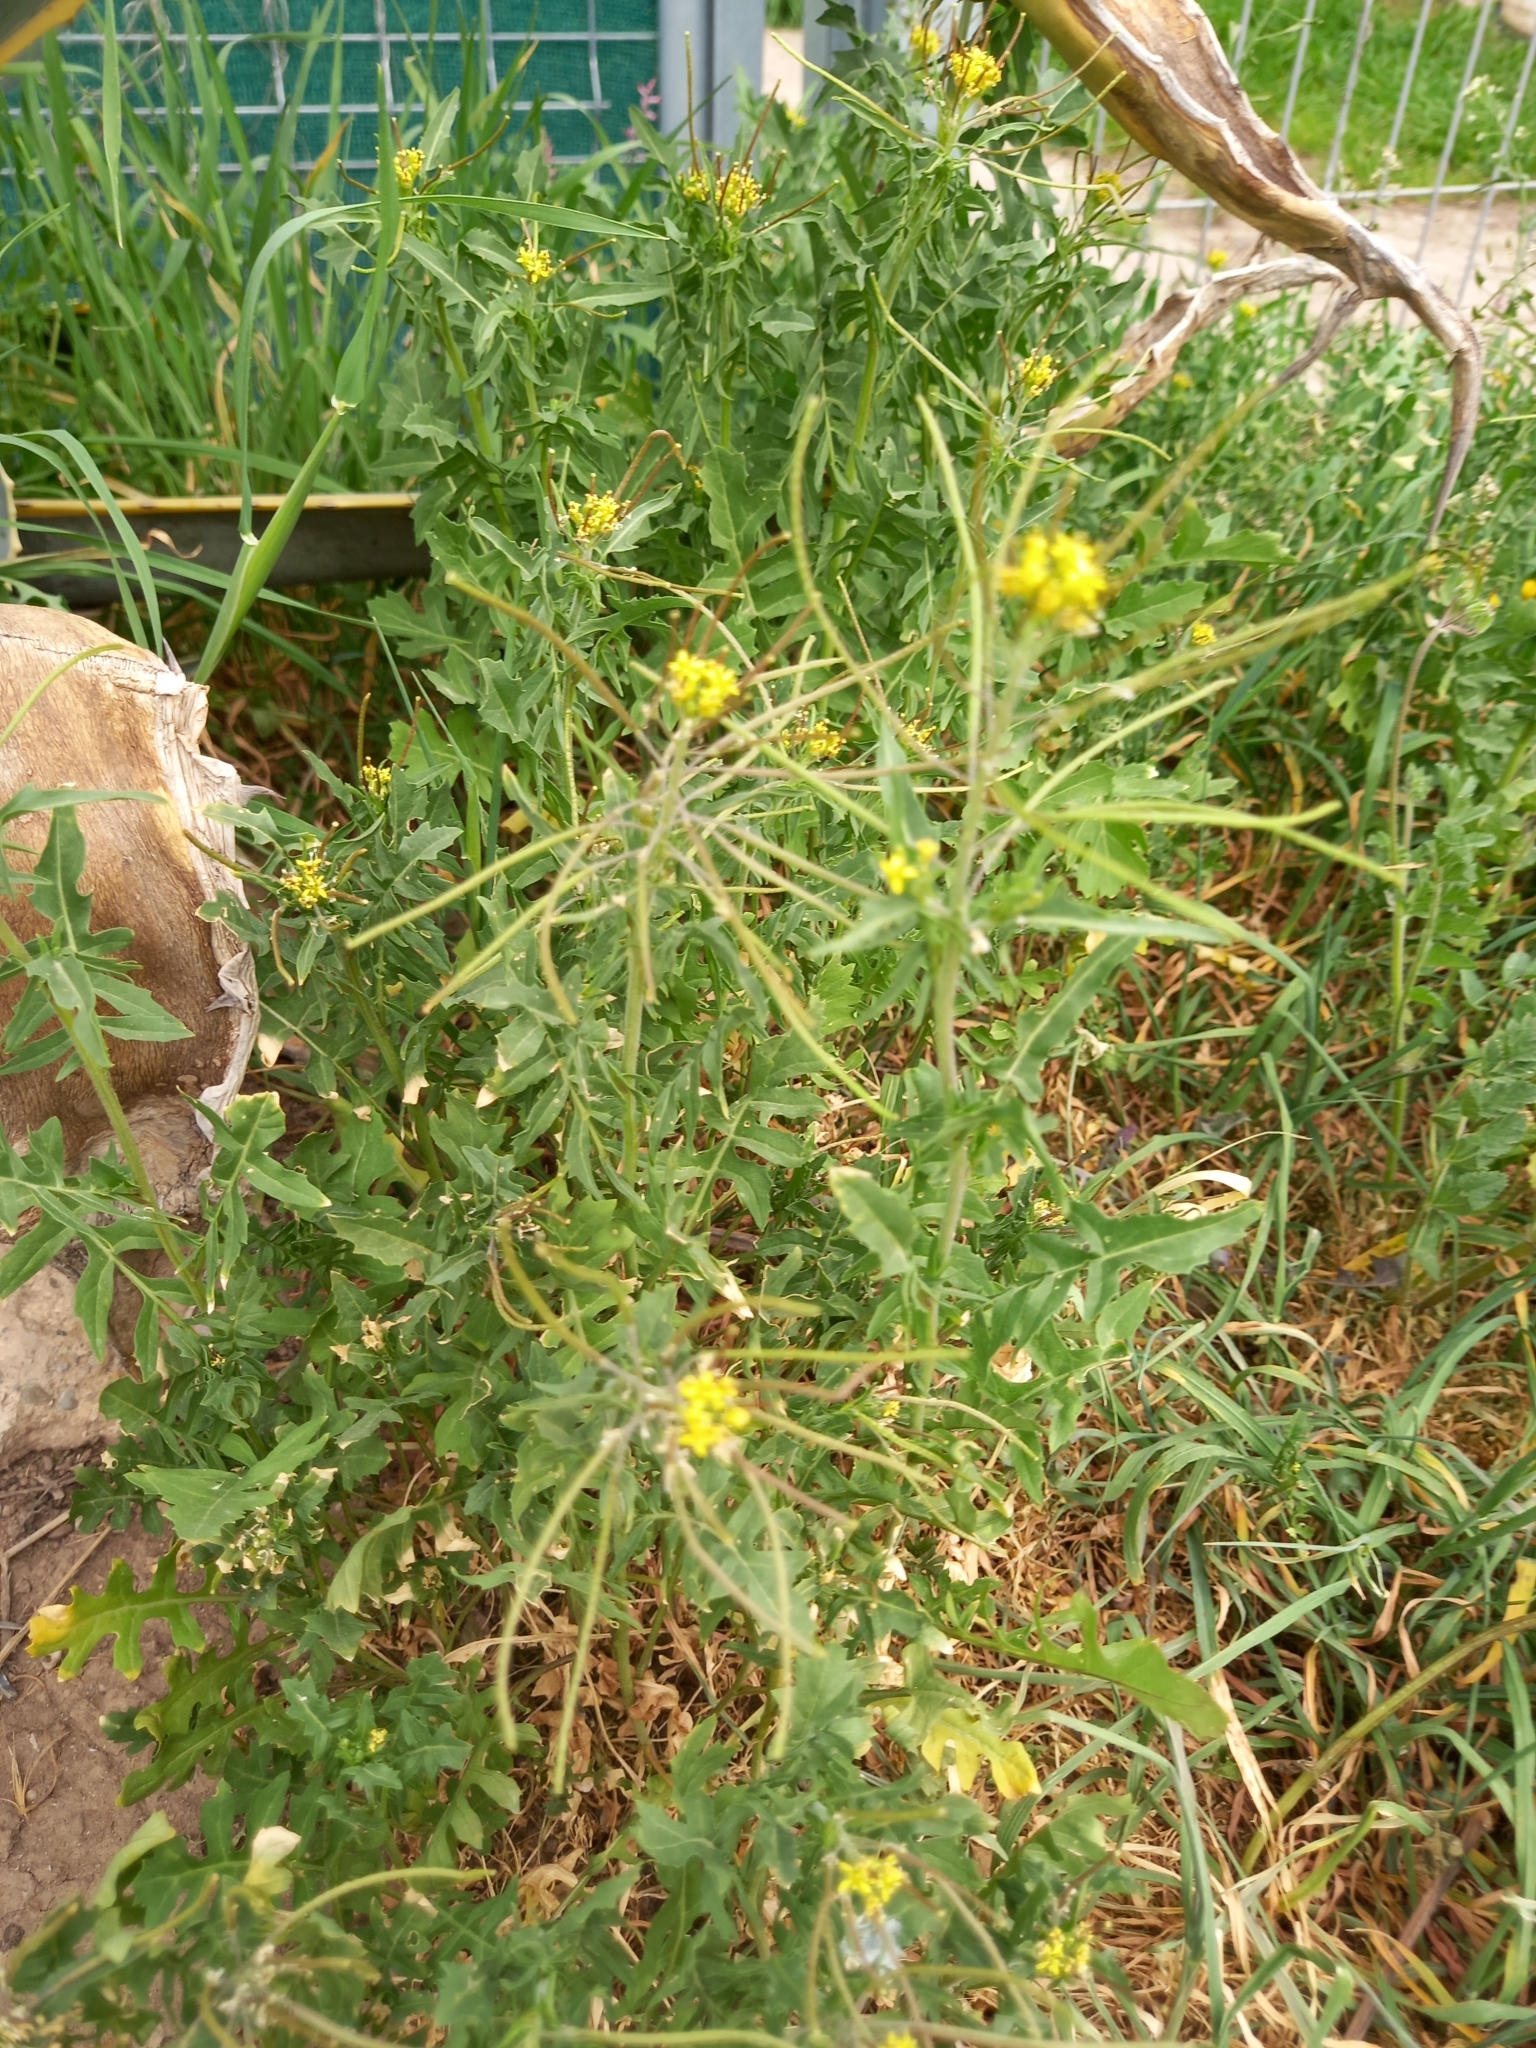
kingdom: Plantae
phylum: Tracheophyta
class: Magnoliopsida
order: Brassicales
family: Brassicaceae
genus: Sisymbrium
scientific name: Sisymbrium irio
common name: London rocket
